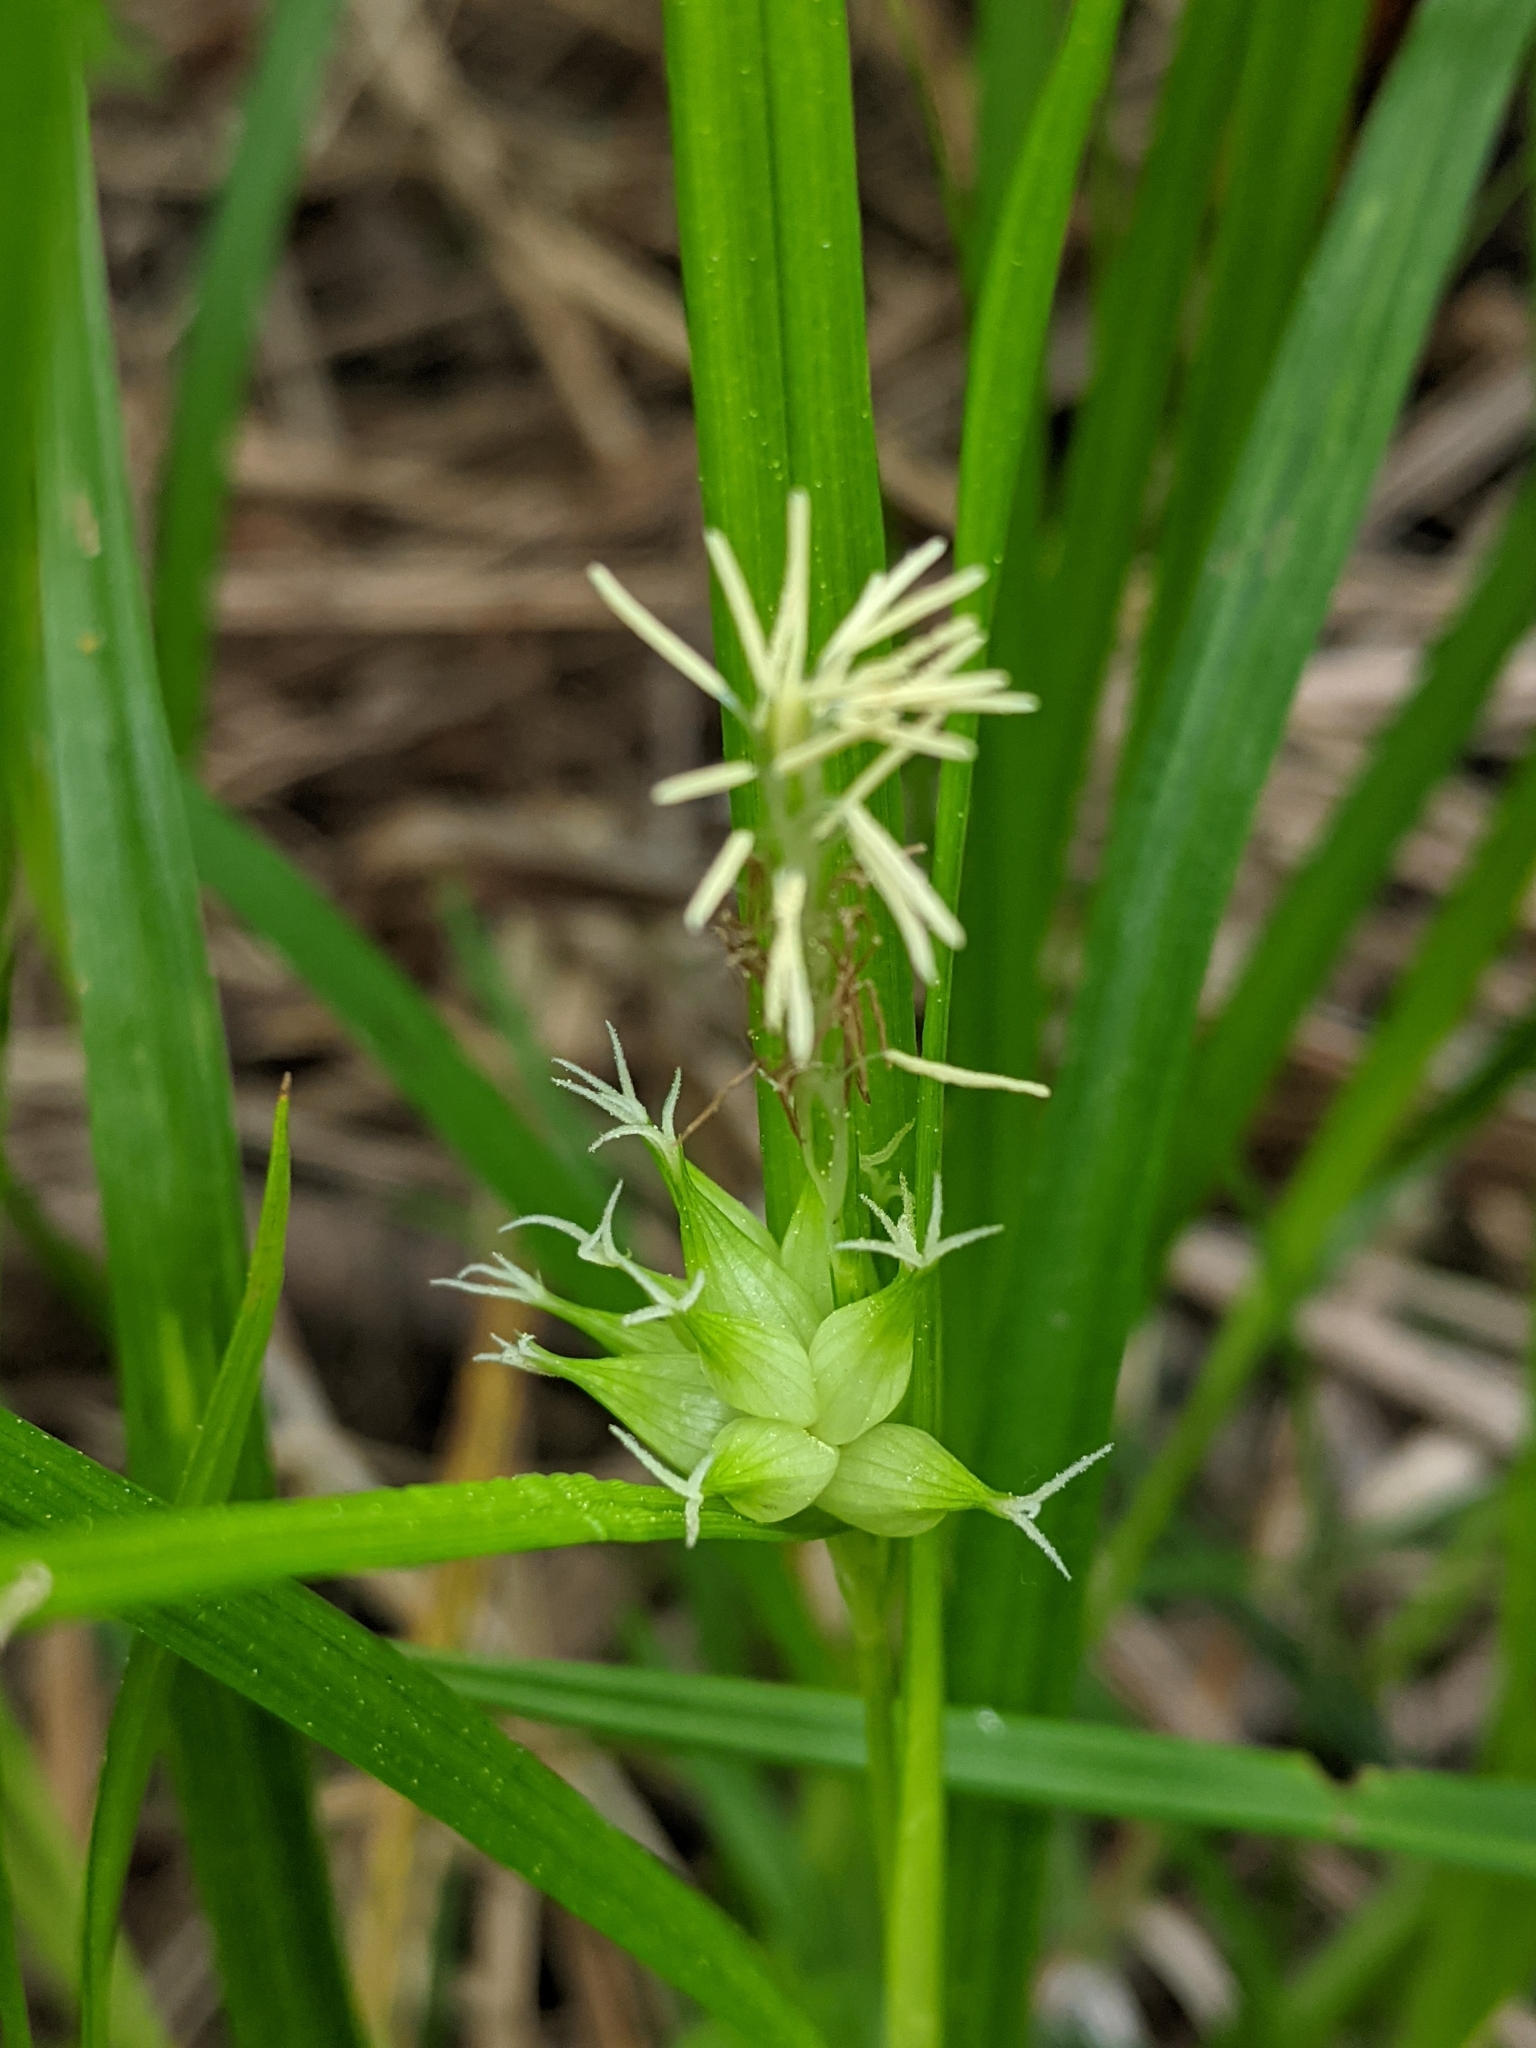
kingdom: Plantae
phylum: Tracheophyta
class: Liliopsida
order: Poales
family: Cyperaceae
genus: Carex
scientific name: Carex intumescens
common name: Greater bladder sedge
